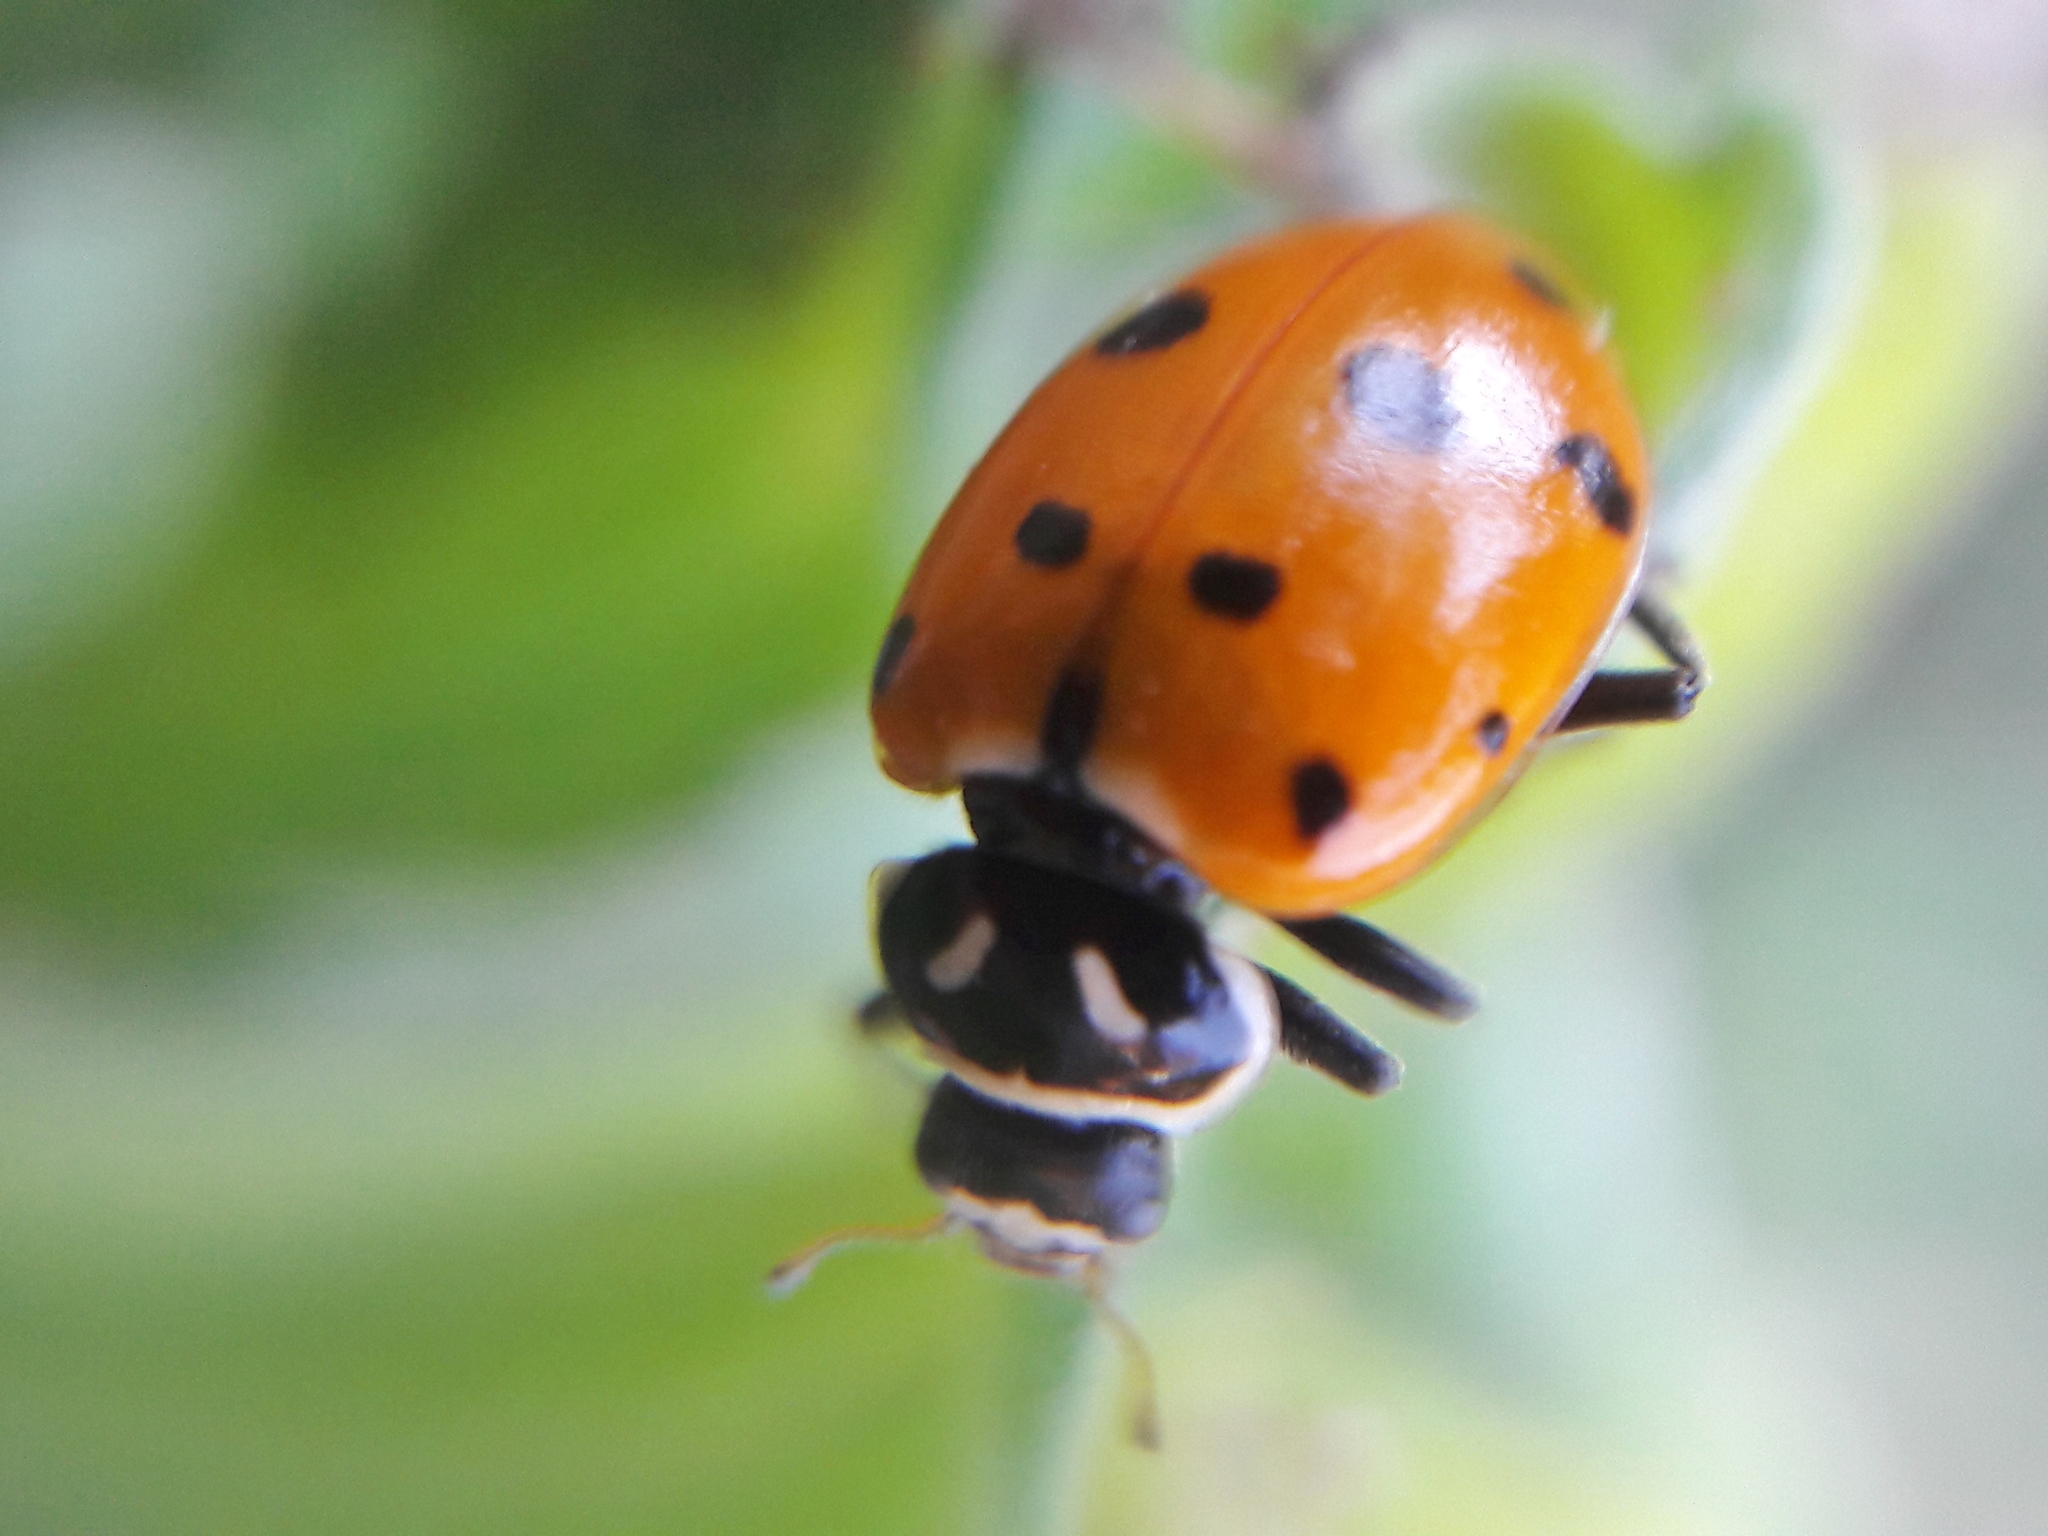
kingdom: Animalia
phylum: Arthropoda
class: Insecta
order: Coleoptera
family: Coccinellidae
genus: Hippodamia
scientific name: Hippodamia convergens
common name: Convergent lady beetle
